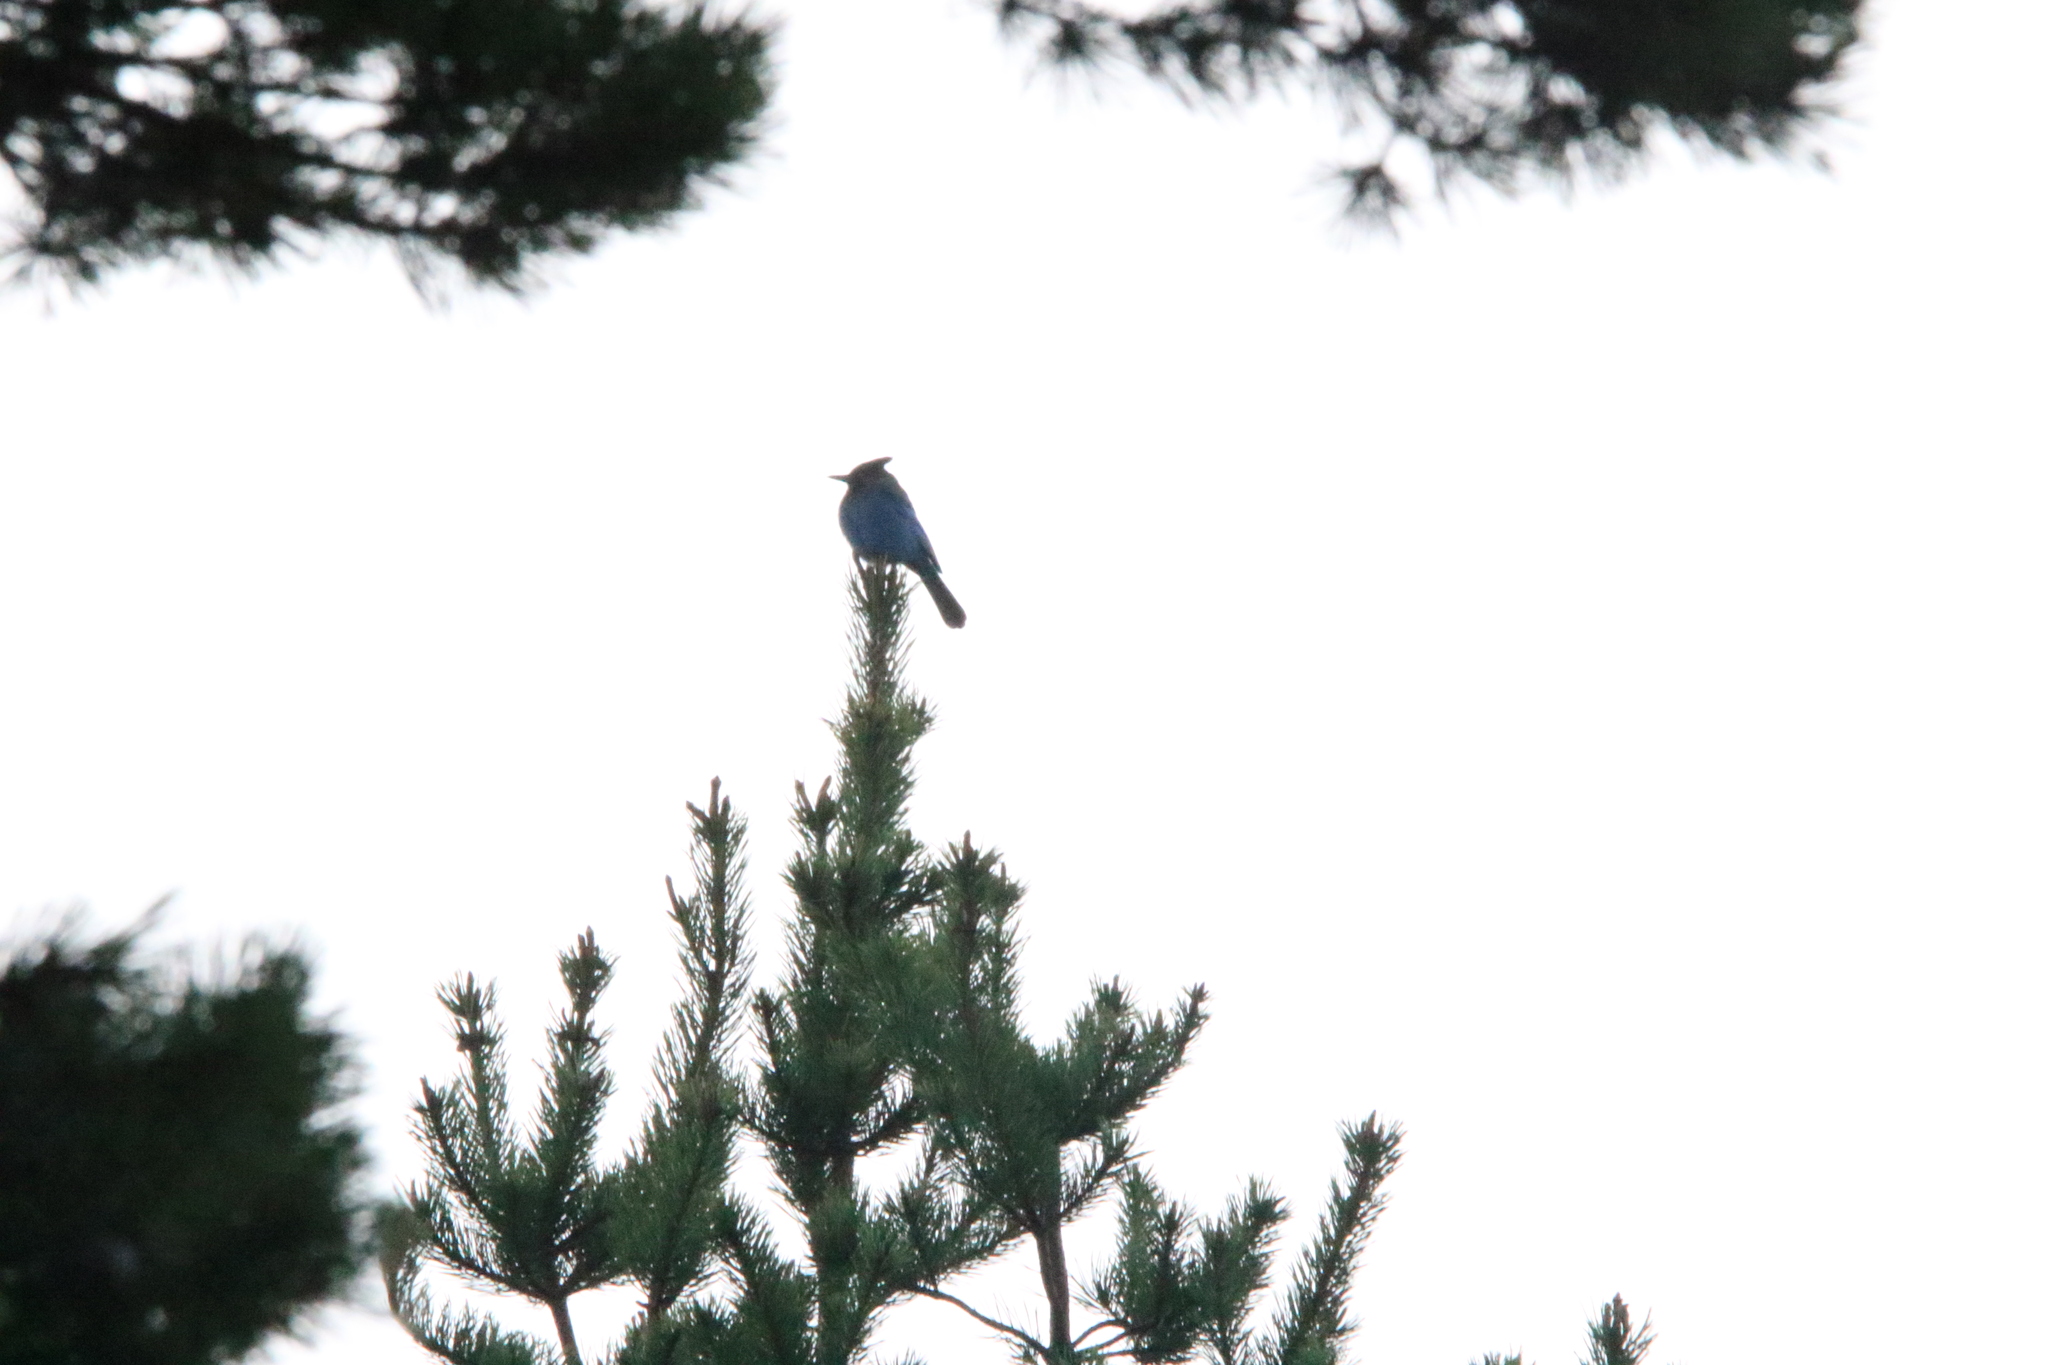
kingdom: Animalia
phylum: Chordata
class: Aves
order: Passeriformes
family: Corvidae
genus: Cyanocitta
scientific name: Cyanocitta stelleri
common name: Steller's jay
